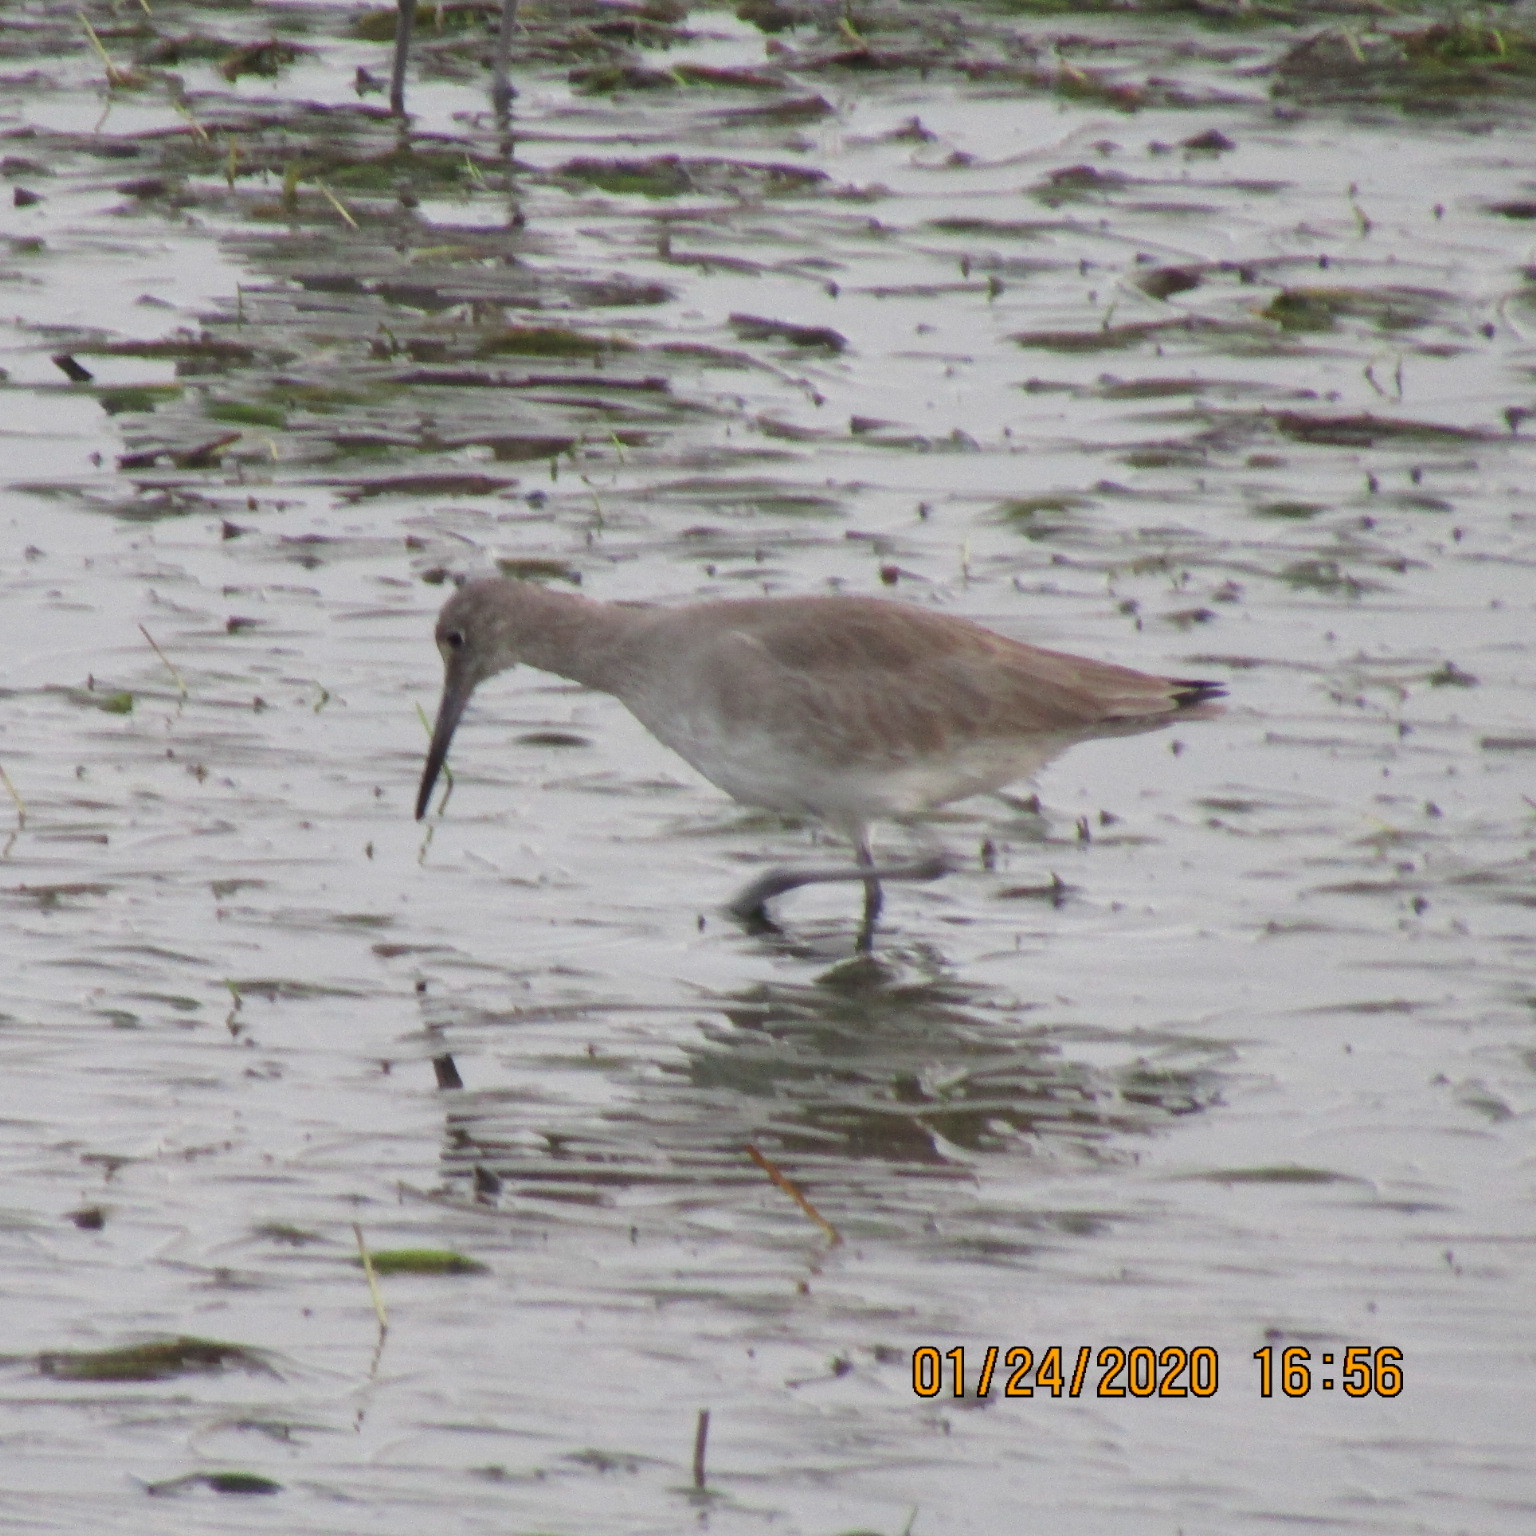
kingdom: Animalia
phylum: Chordata
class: Aves
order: Charadriiformes
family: Scolopacidae
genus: Tringa
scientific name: Tringa semipalmata
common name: Willet
